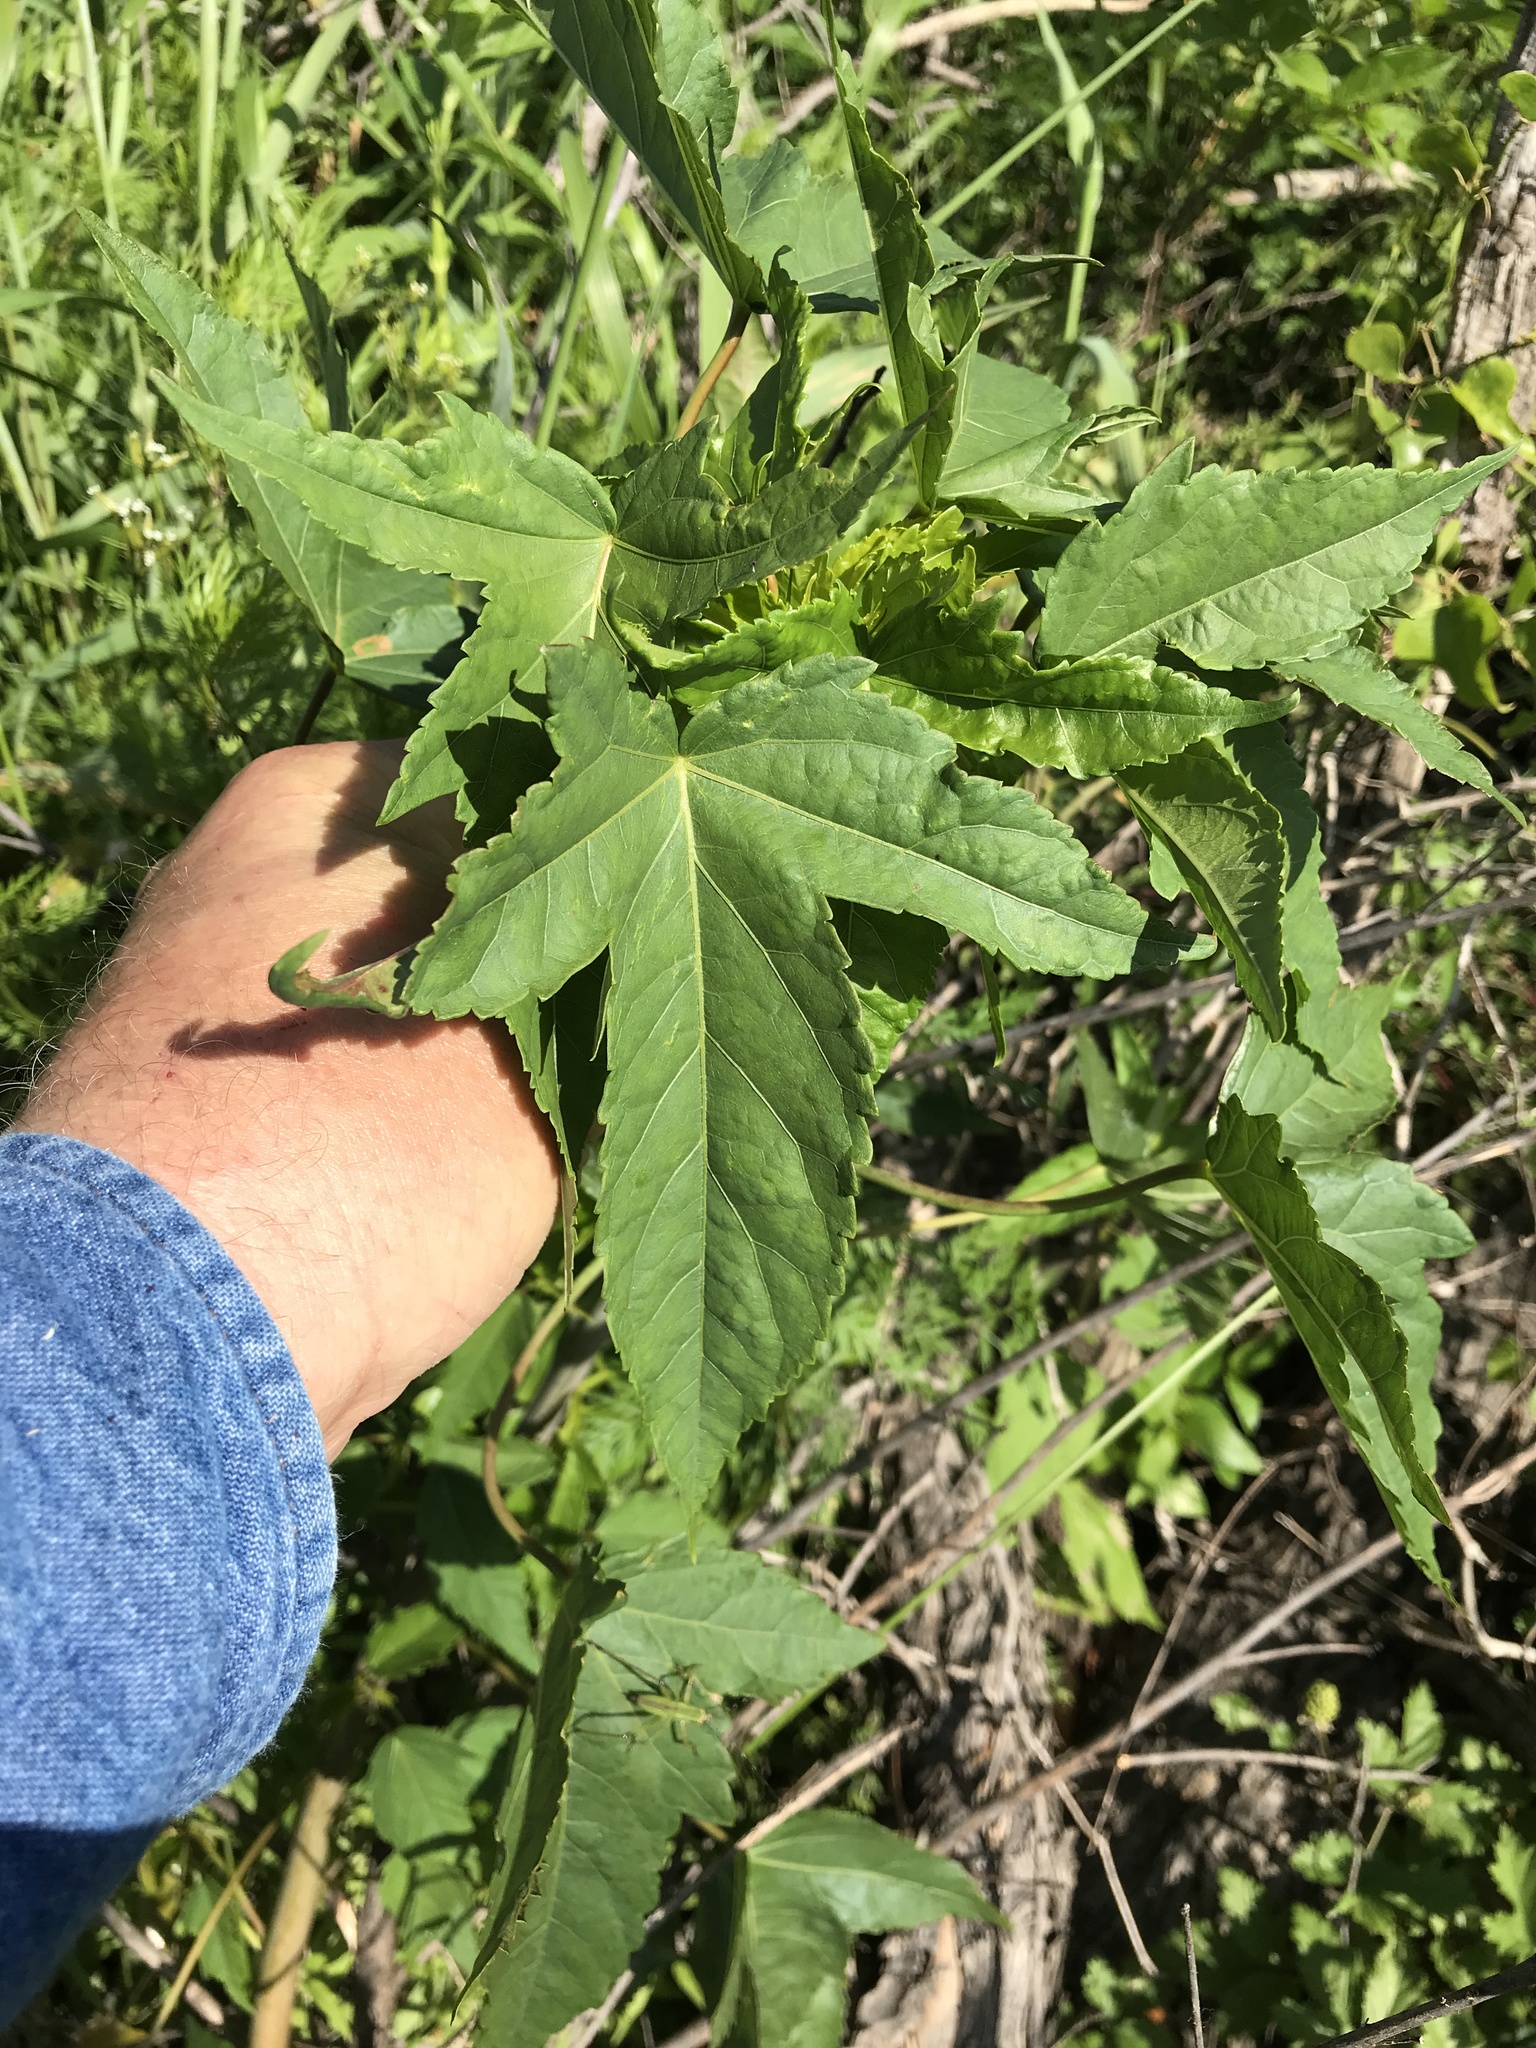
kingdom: Plantae
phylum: Tracheophyta
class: Magnoliopsida
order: Malvales
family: Malvaceae
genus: Hibiscus
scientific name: Hibiscus laevis
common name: Scarlet rose-mallow
